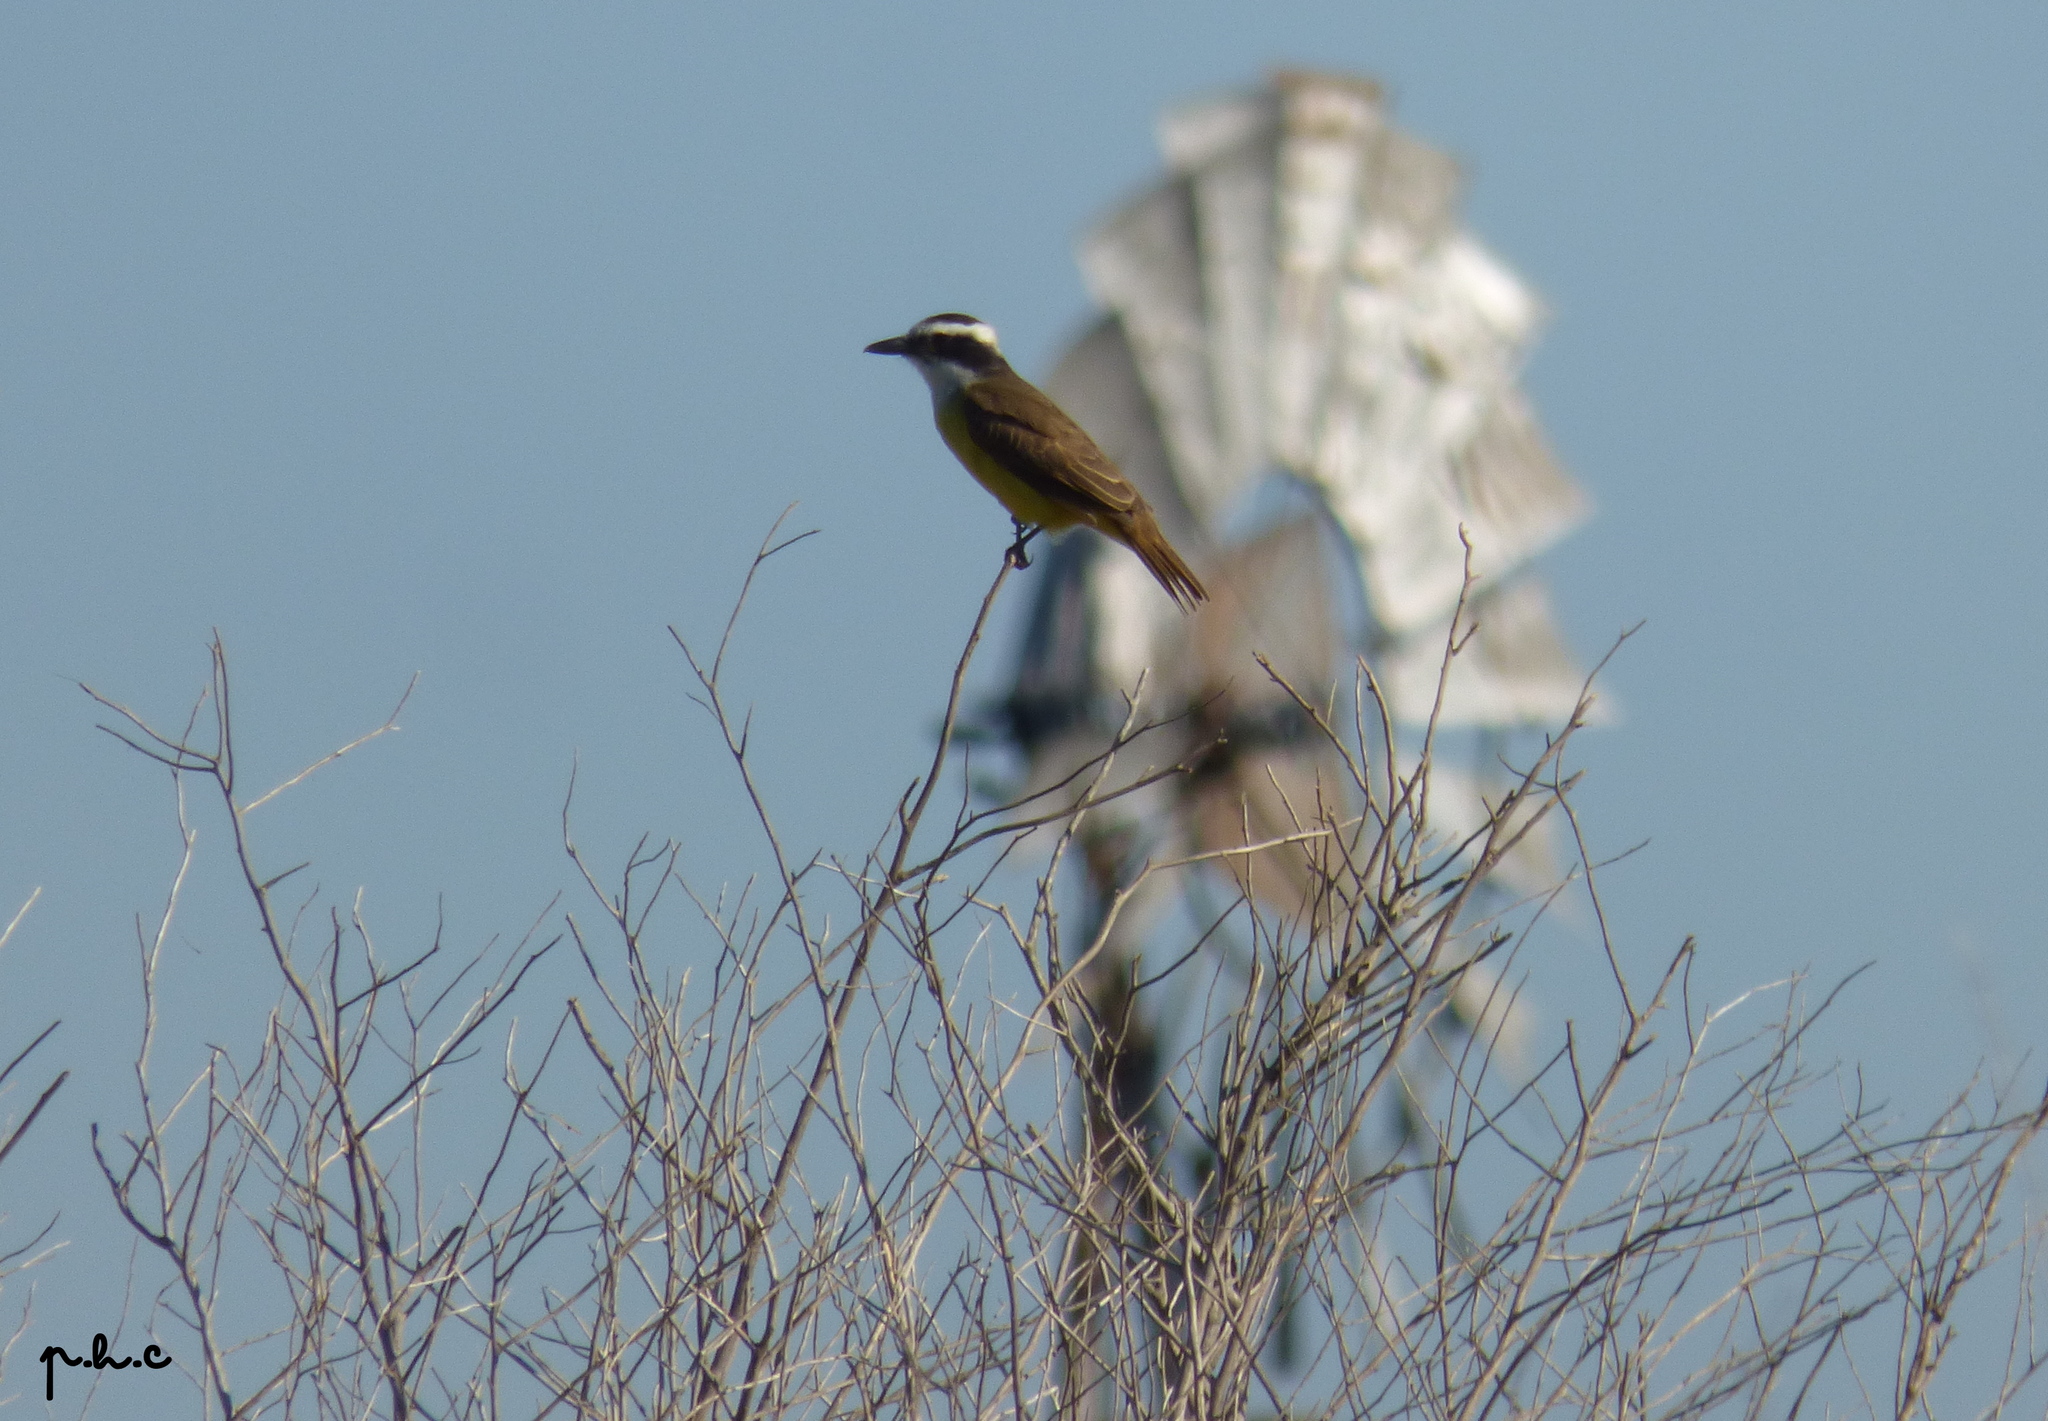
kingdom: Animalia
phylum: Chordata
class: Aves
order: Passeriformes
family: Tyrannidae
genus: Pitangus
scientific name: Pitangus sulphuratus
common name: Great kiskadee
